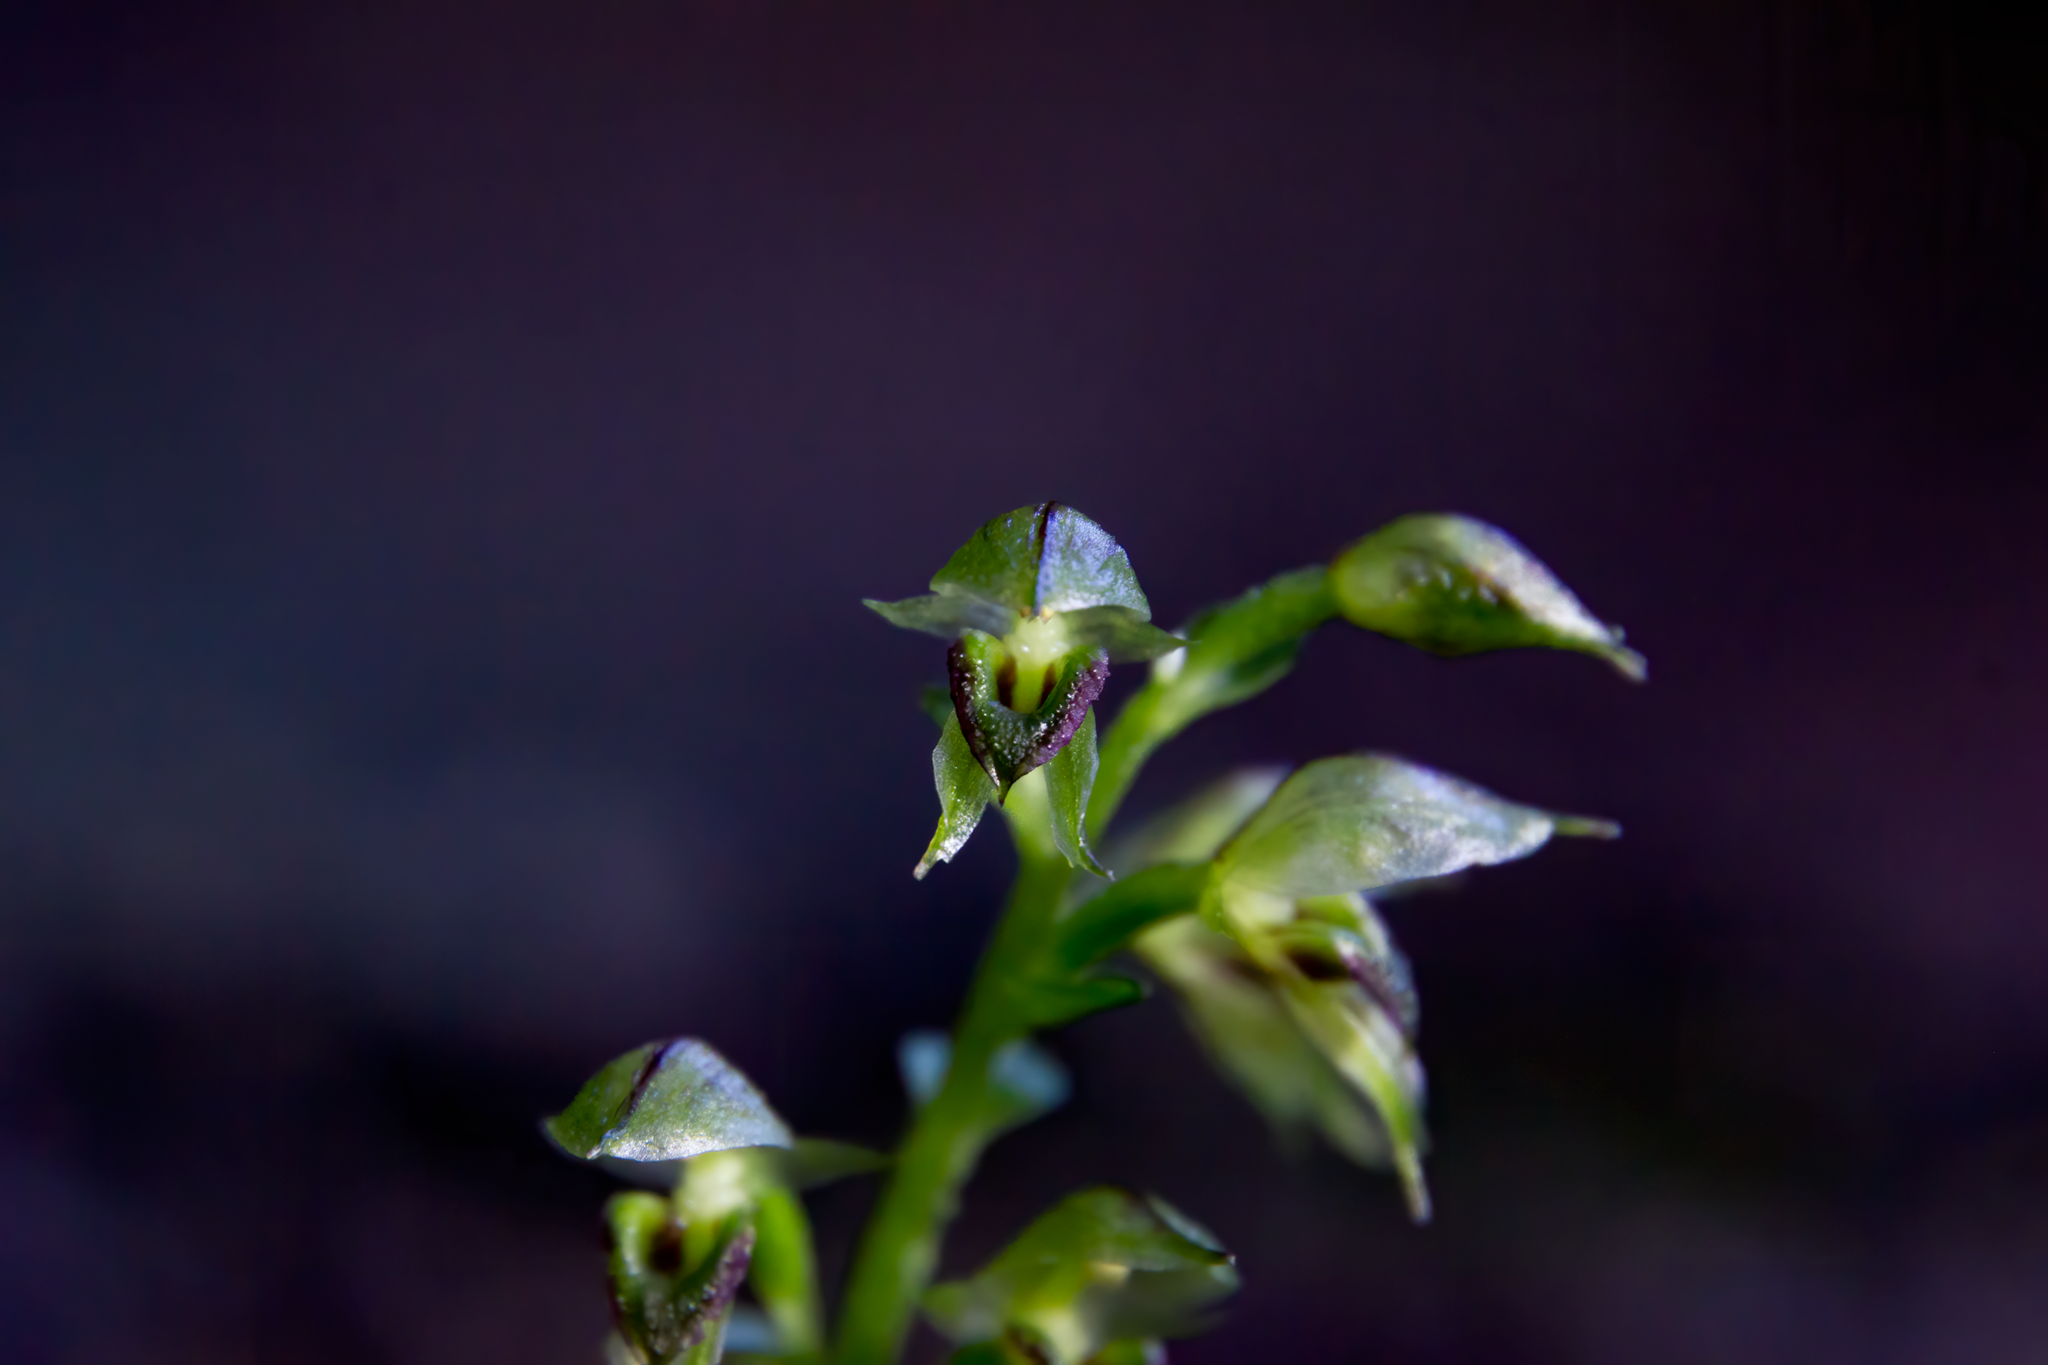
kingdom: Plantae
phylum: Tracheophyta
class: Liliopsida
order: Asparagales
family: Orchidaceae
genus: Acianthus
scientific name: Acianthus sinclairii
